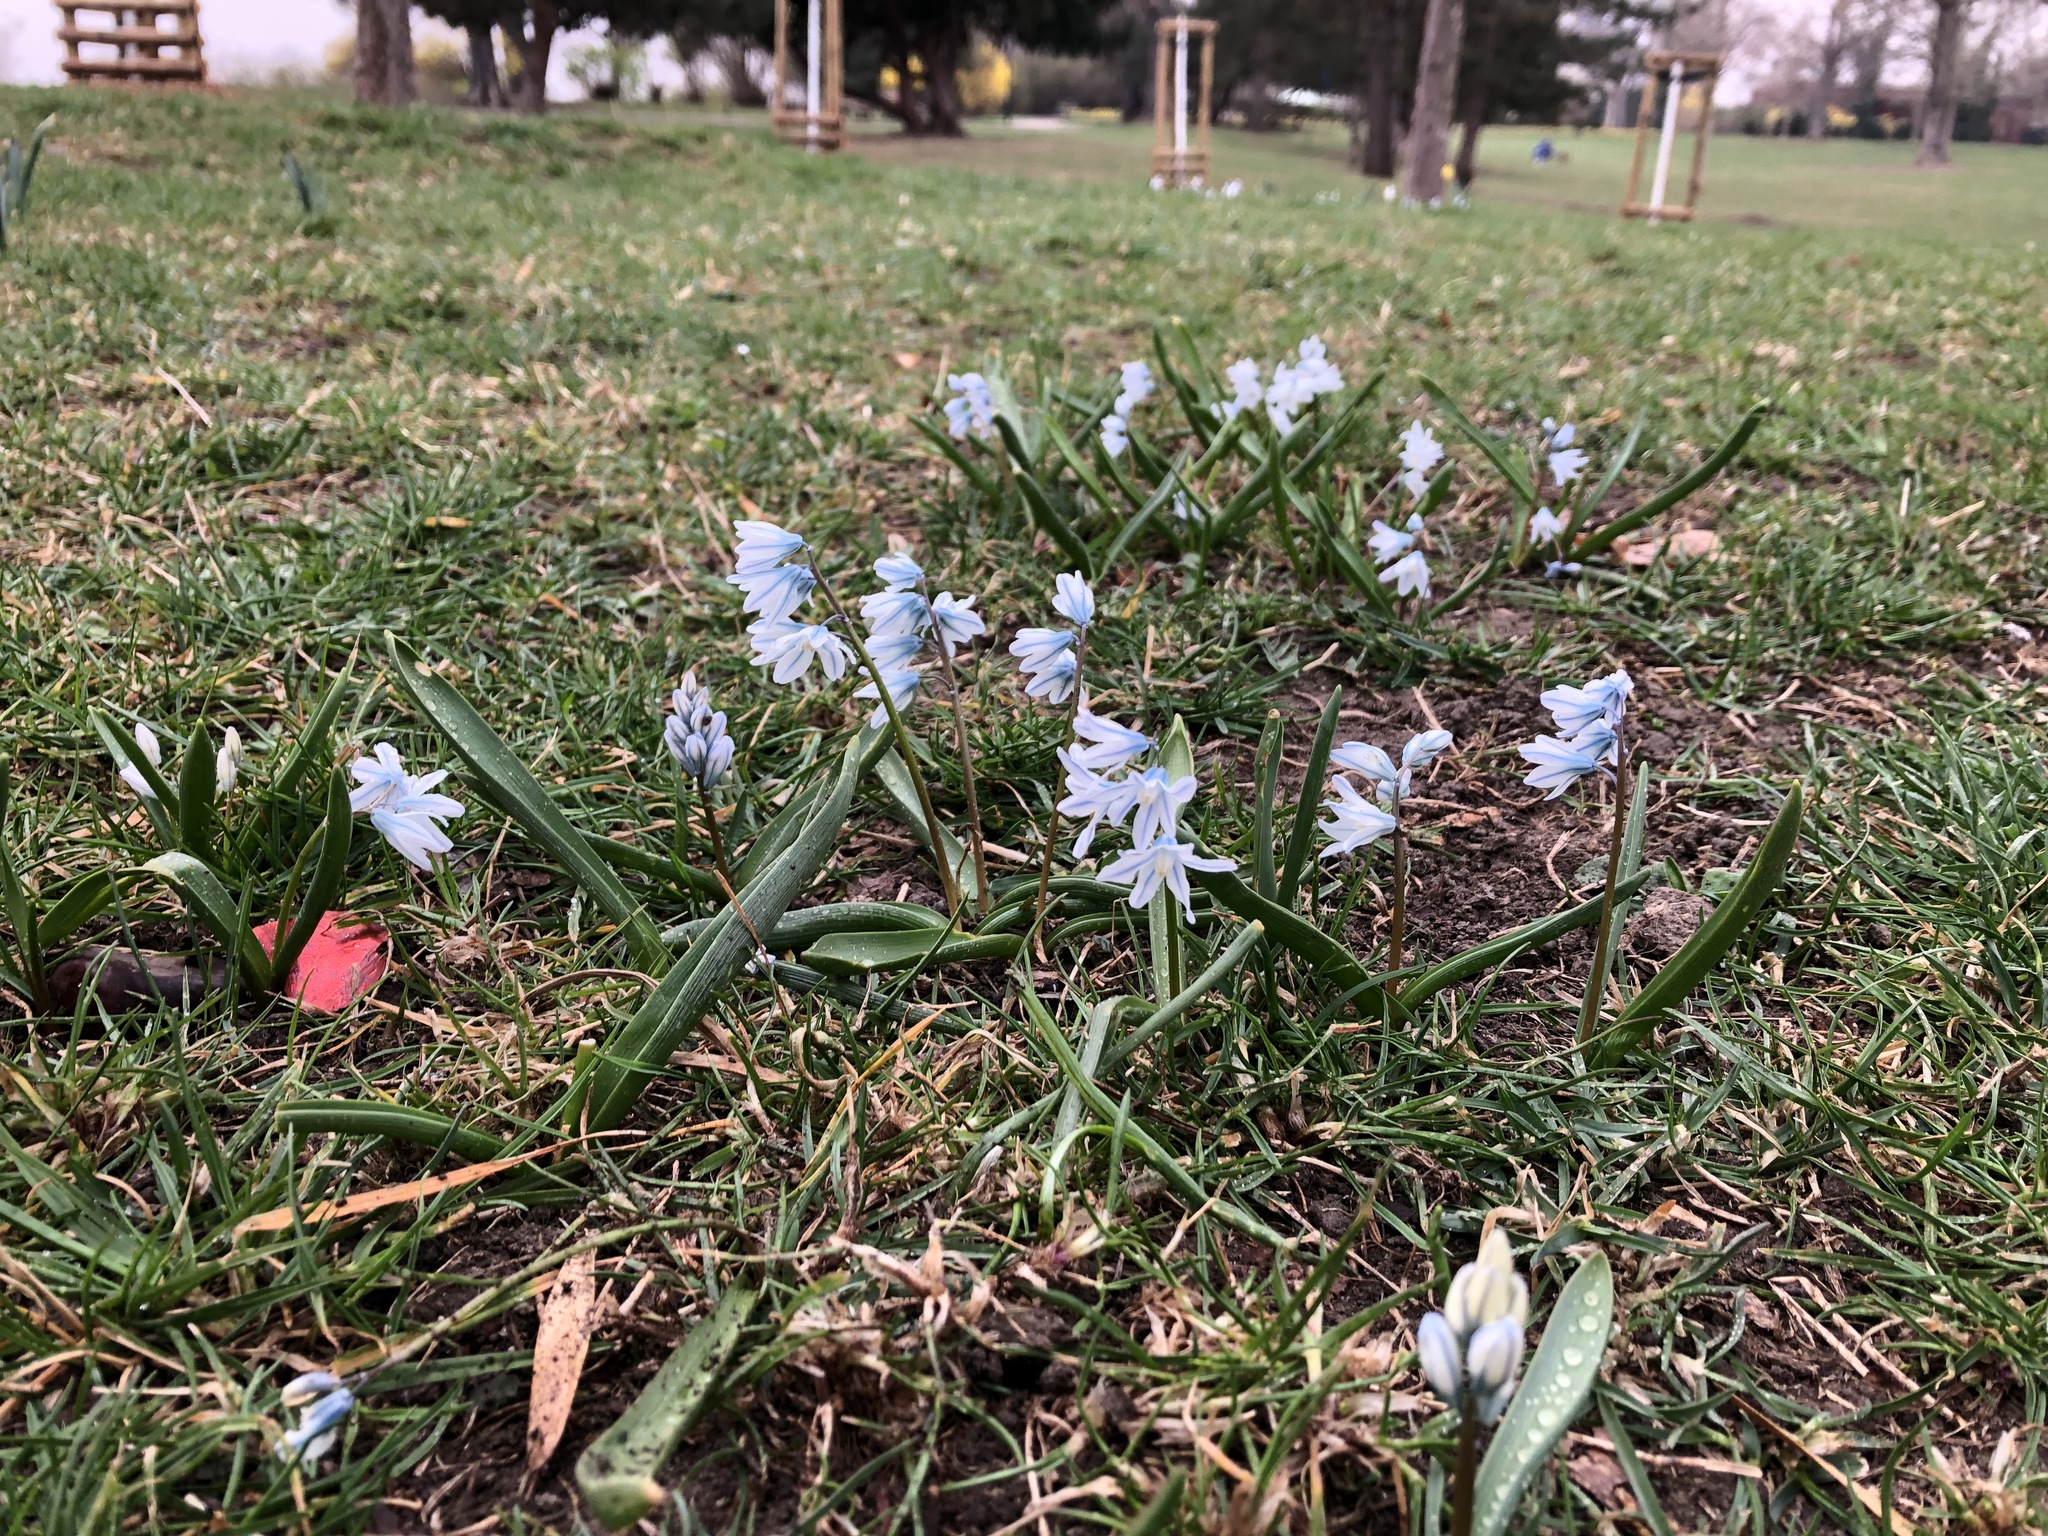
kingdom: Plantae
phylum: Tracheophyta
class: Liliopsida
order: Asparagales
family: Asparagaceae
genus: Puschkinia
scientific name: Puschkinia scilloides
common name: Striped squill
